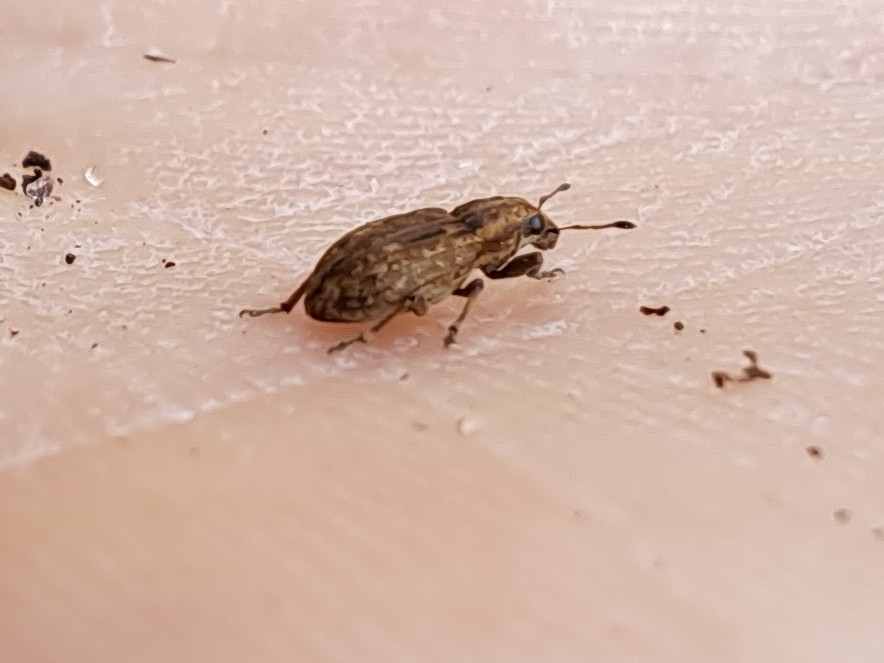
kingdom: Animalia
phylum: Arthropoda
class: Insecta
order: Coleoptera
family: Curculionidae
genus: Sitona
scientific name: Sitona obsoletus
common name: Weevil
